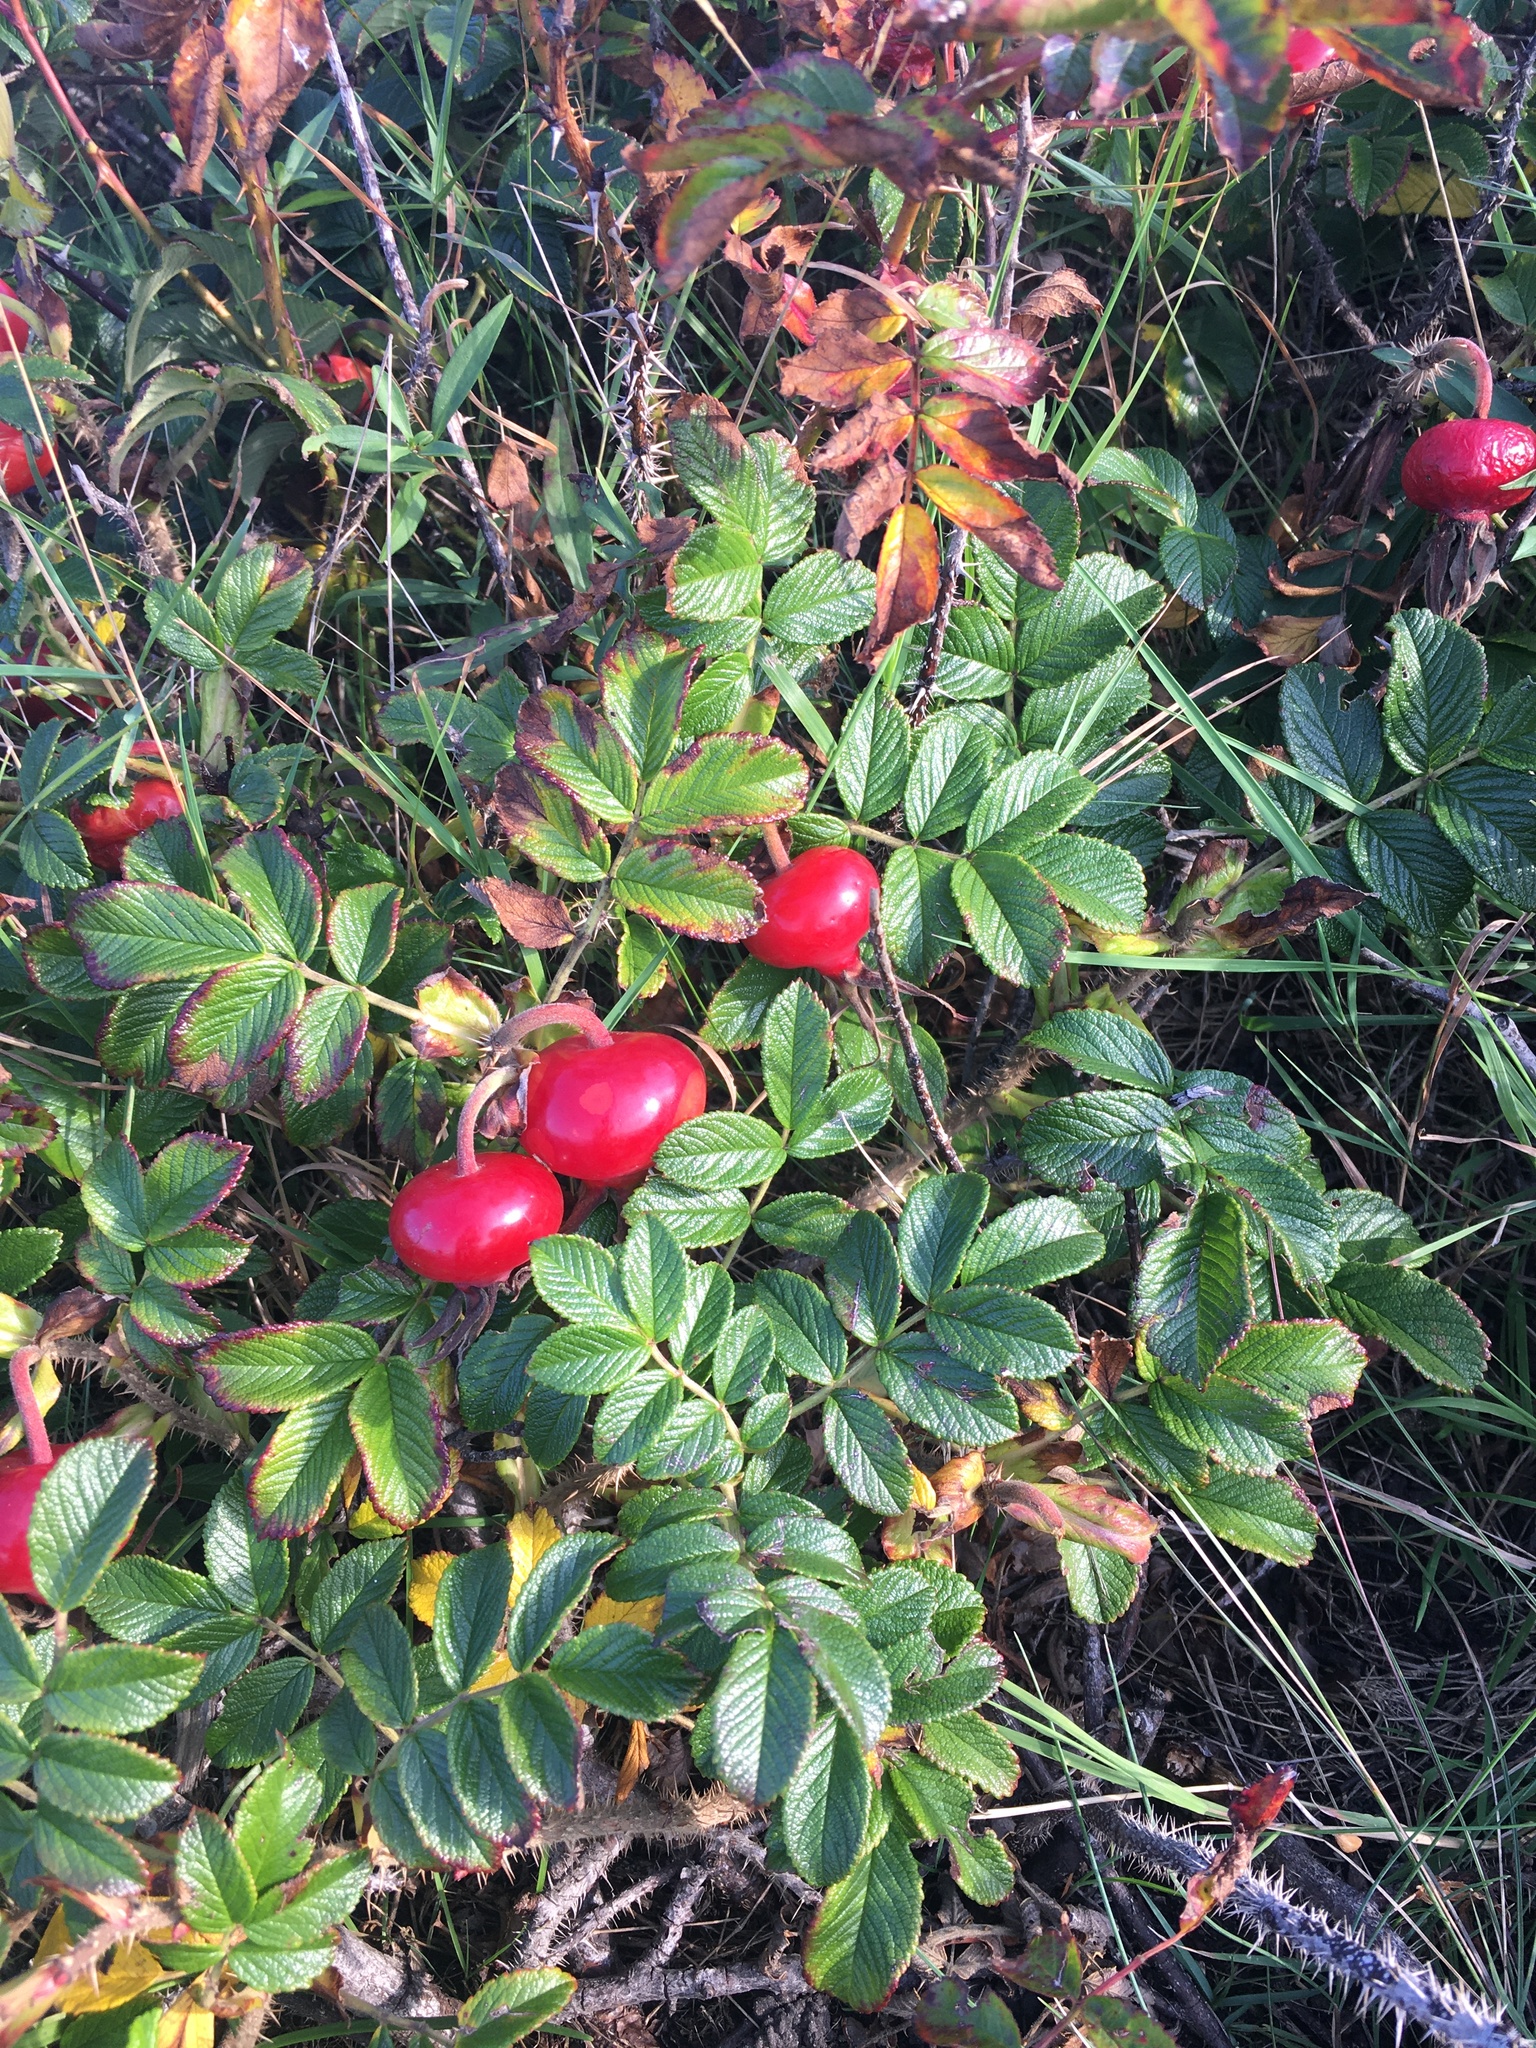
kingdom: Plantae
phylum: Tracheophyta
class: Magnoliopsida
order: Rosales
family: Rosaceae
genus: Rosa
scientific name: Rosa rugosa
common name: Japanese rose
